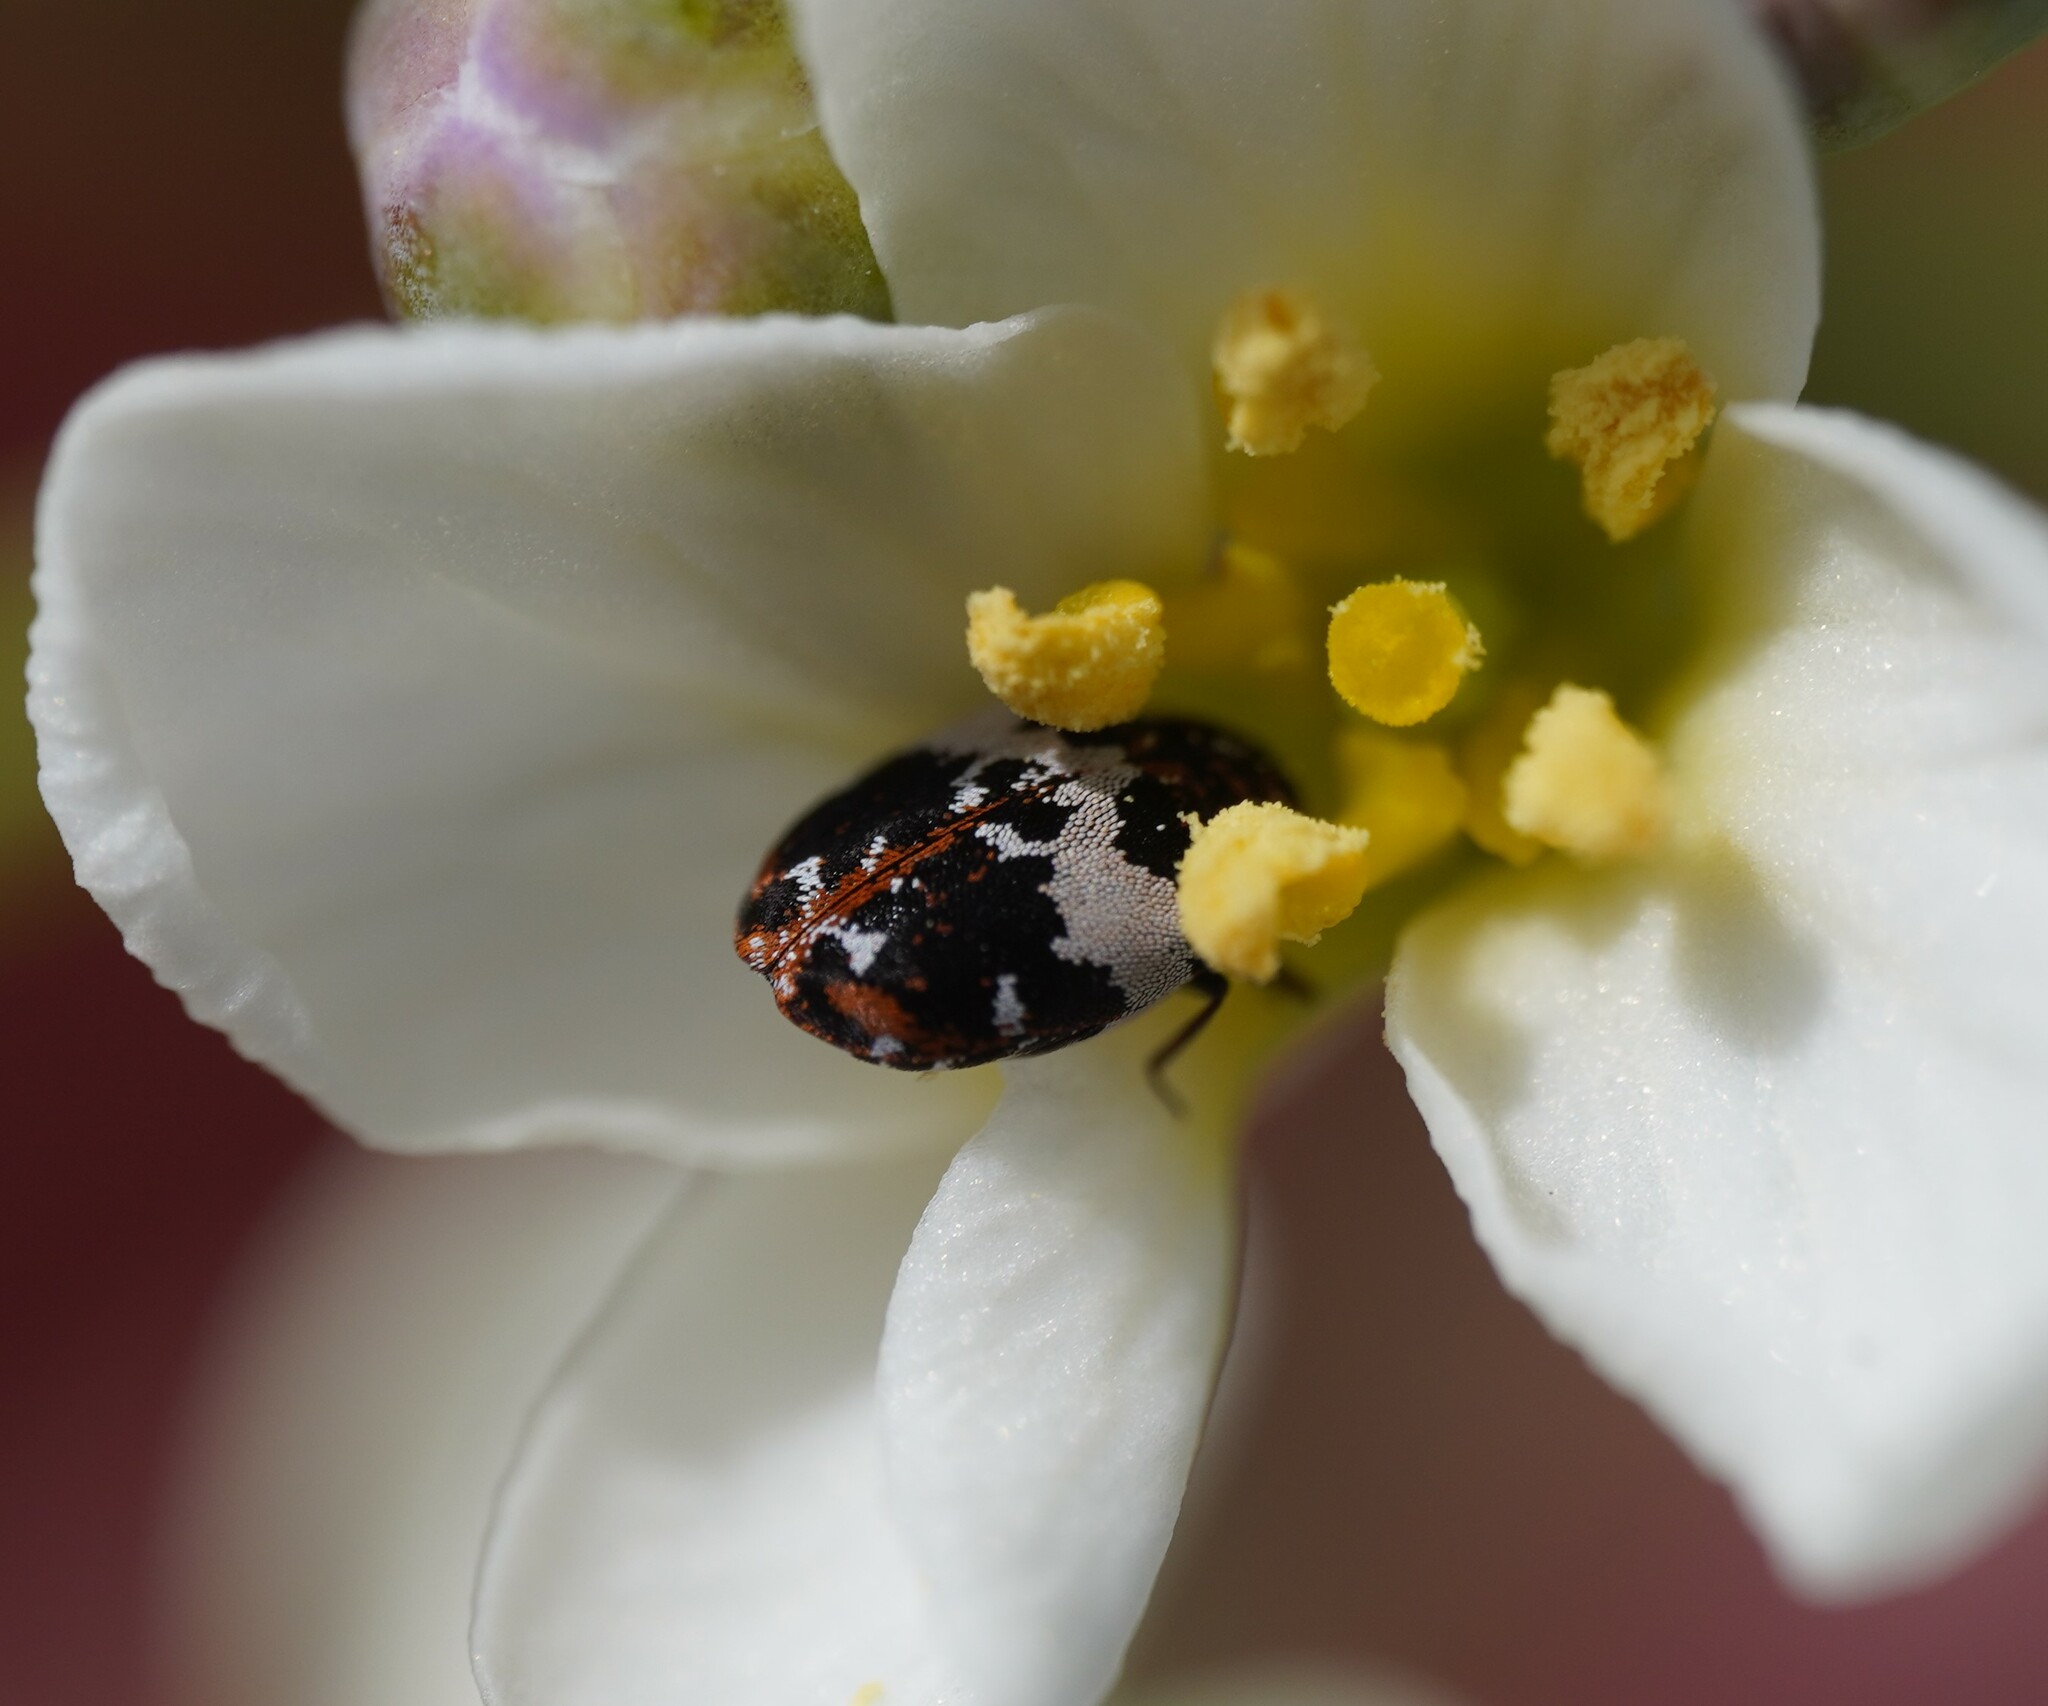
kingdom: Animalia
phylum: Arthropoda
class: Insecta
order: Coleoptera
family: Dermestidae
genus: Anthrenus
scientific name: Anthrenus pimpinellae
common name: Dermestid beetle
